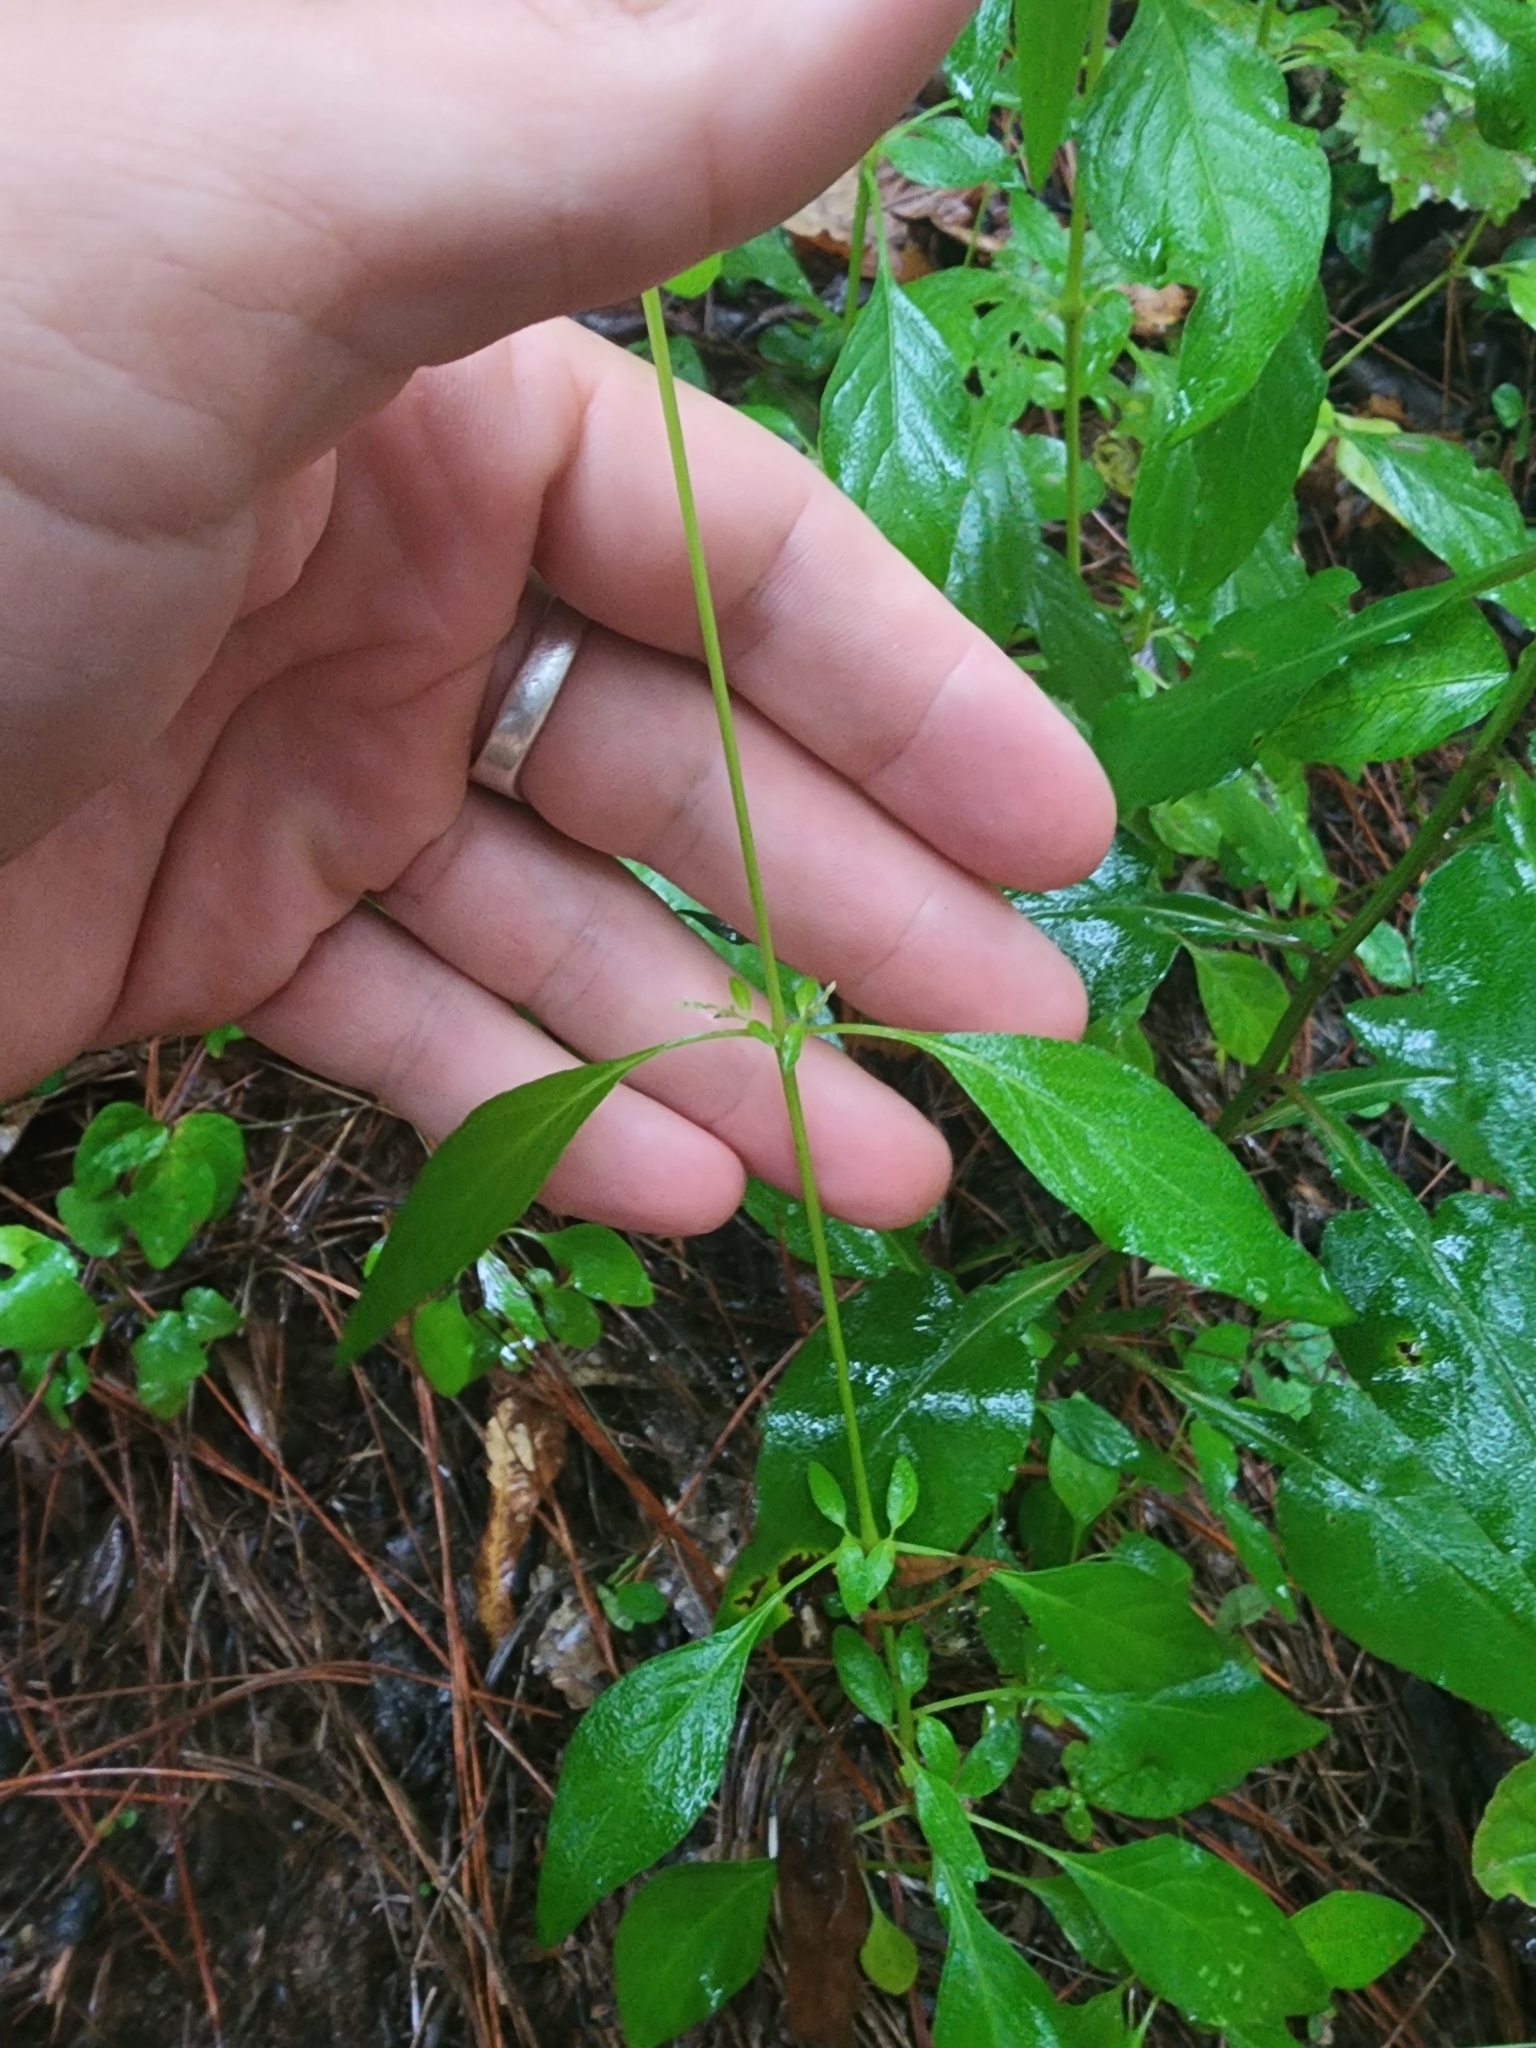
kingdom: Plantae
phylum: Tracheophyta
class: Magnoliopsida
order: Caryophyllales
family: Amaranthaceae
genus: Iresine
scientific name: Iresine diffusa
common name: Juba's-bush
